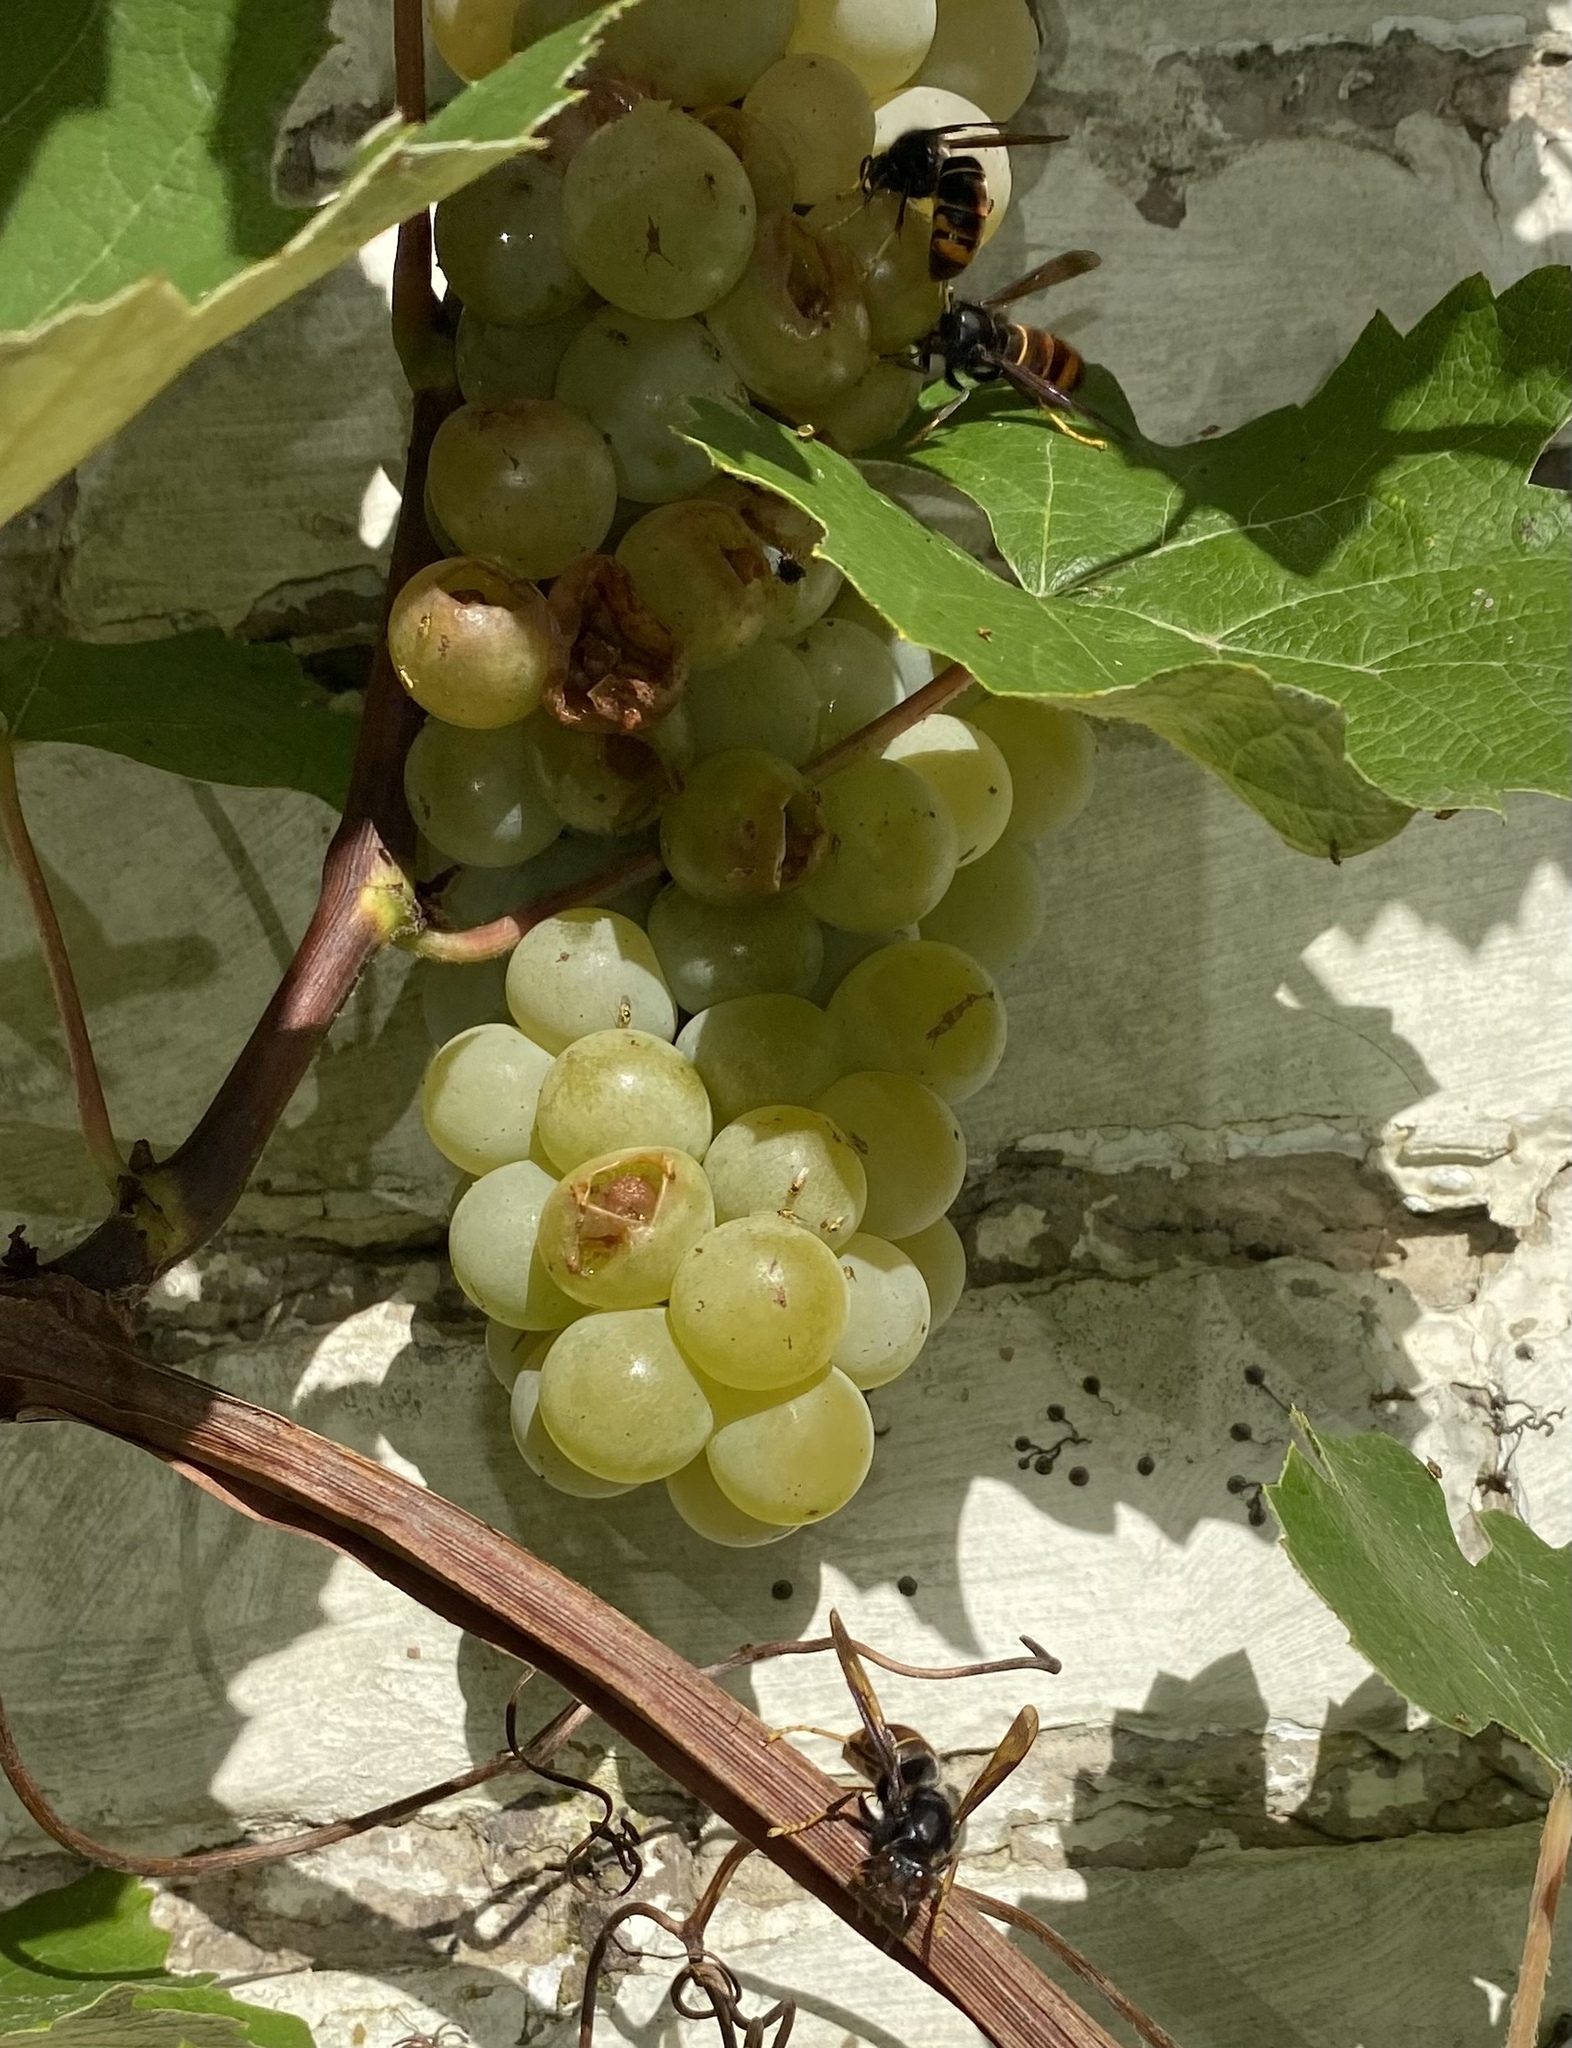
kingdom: Animalia
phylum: Arthropoda
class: Insecta
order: Hymenoptera
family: Vespidae
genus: Vespa
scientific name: Vespa velutina
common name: Asian hornet
